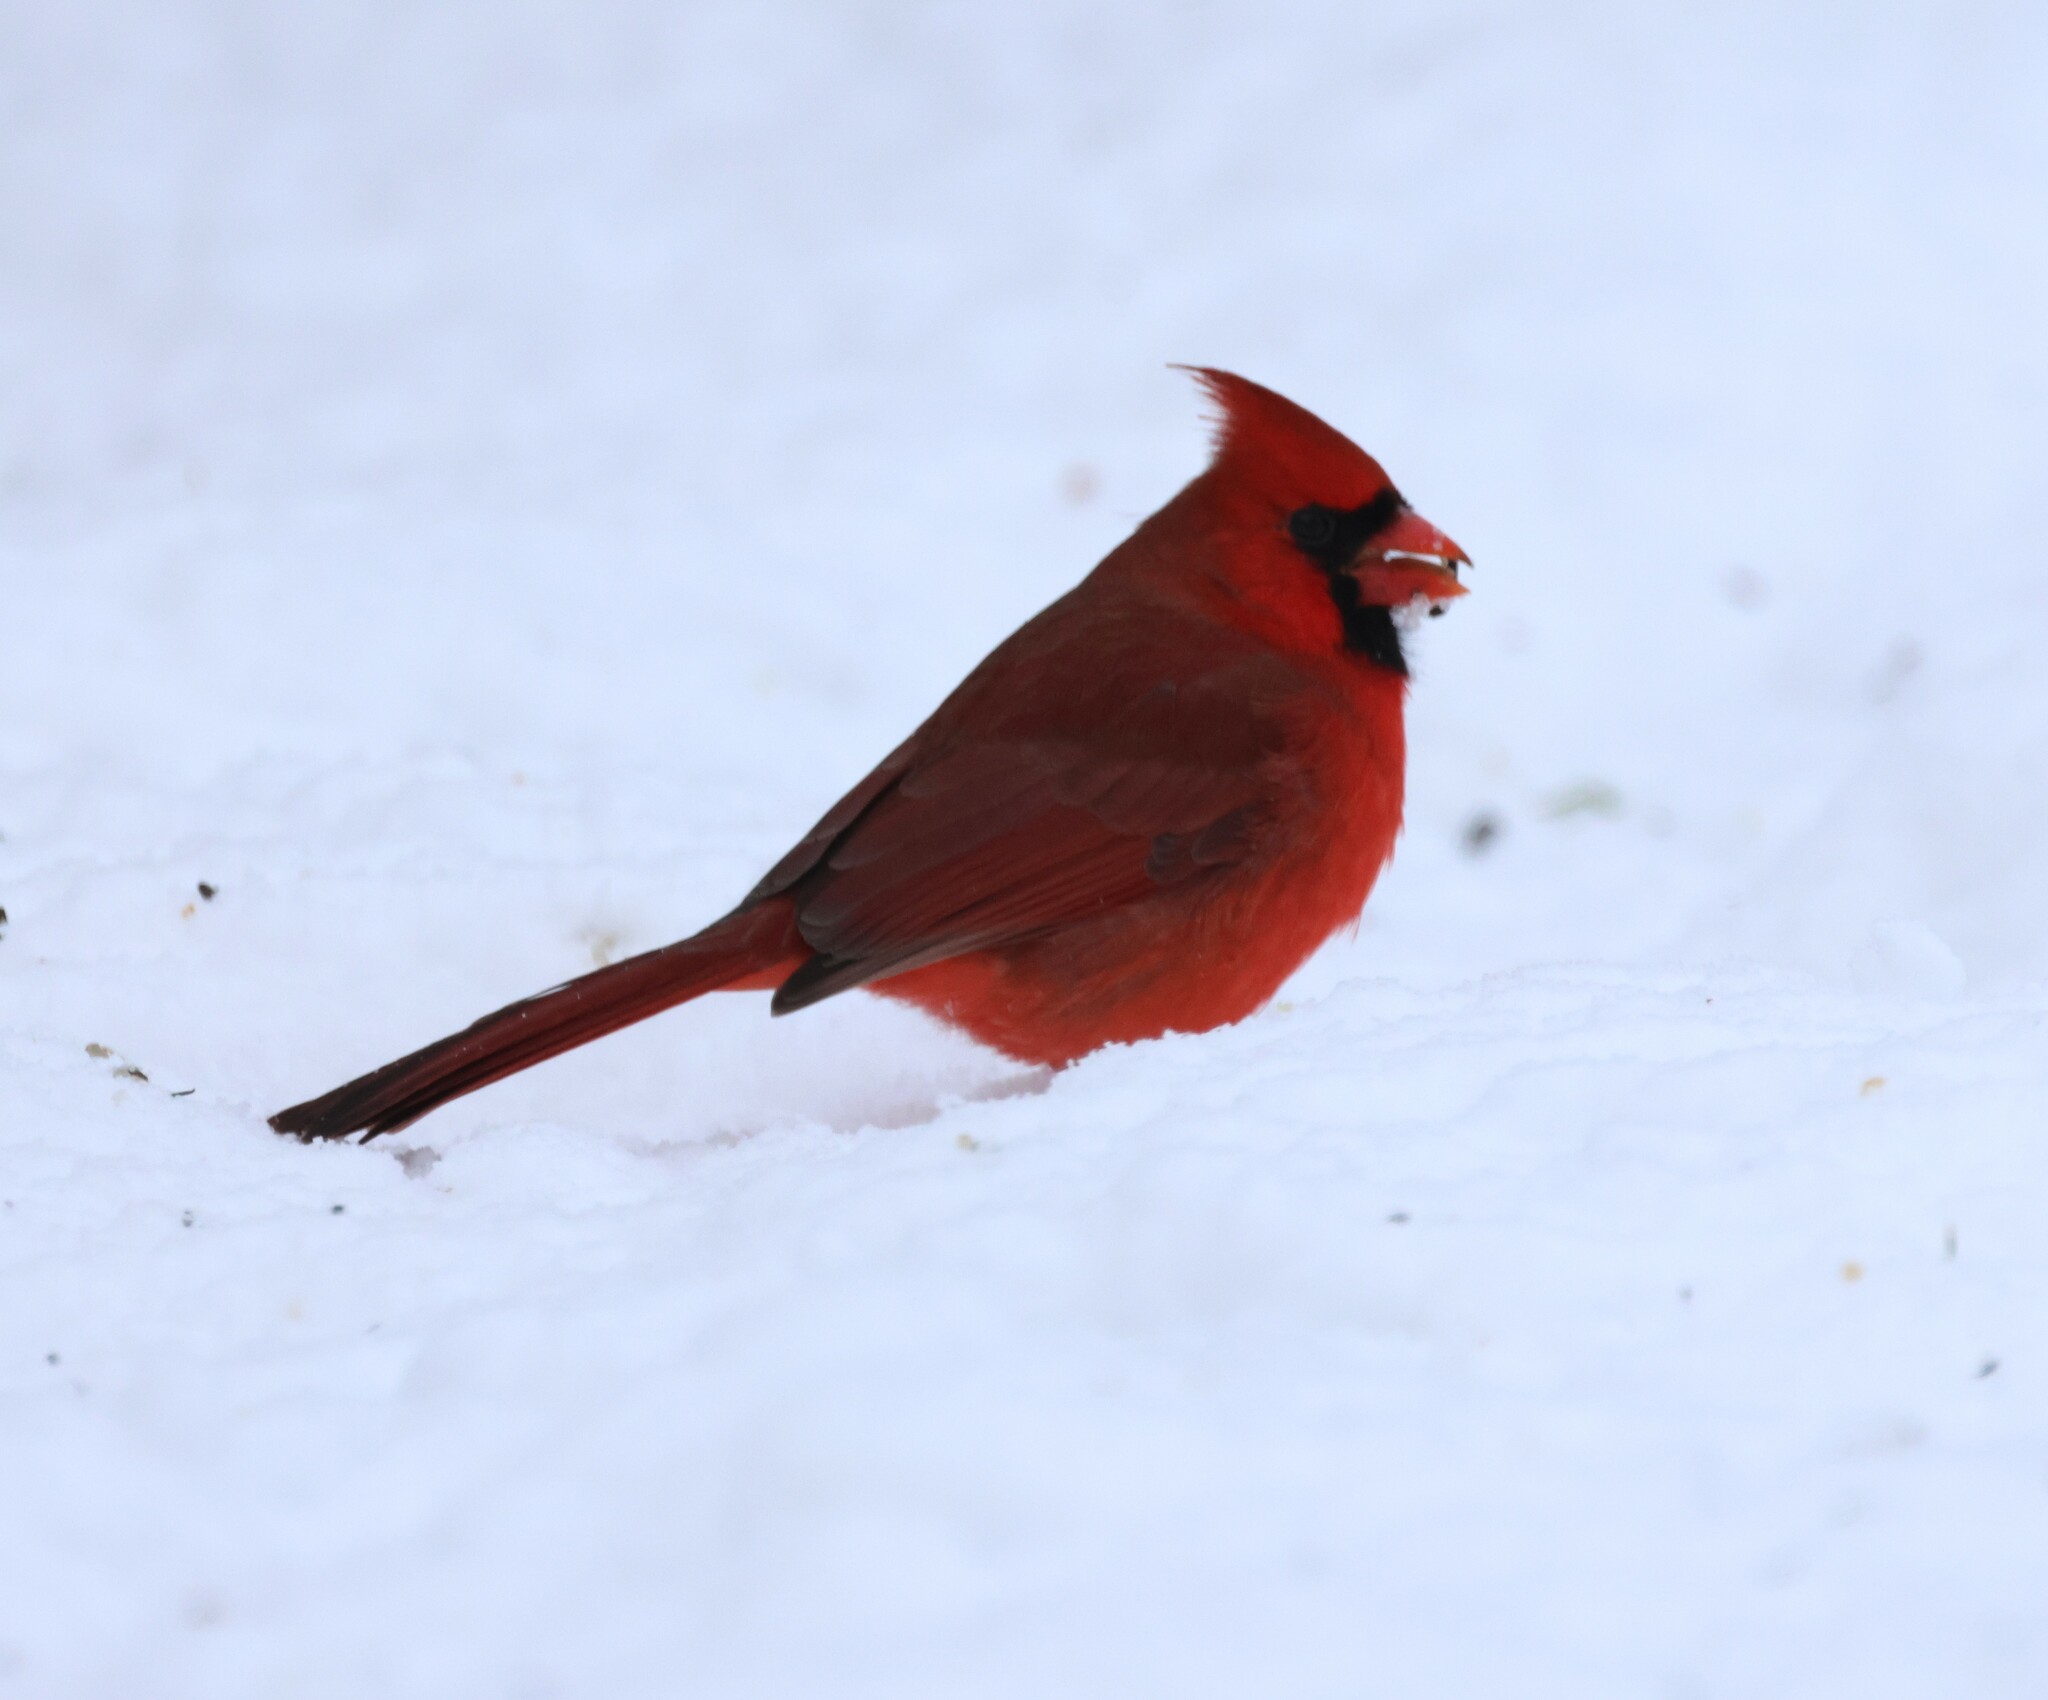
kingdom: Animalia
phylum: Chordata
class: Aves
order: Passeriformes
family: Cardinalidae
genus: Cardinalis
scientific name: Cardinalis cardinalis
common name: Northern cardinal
